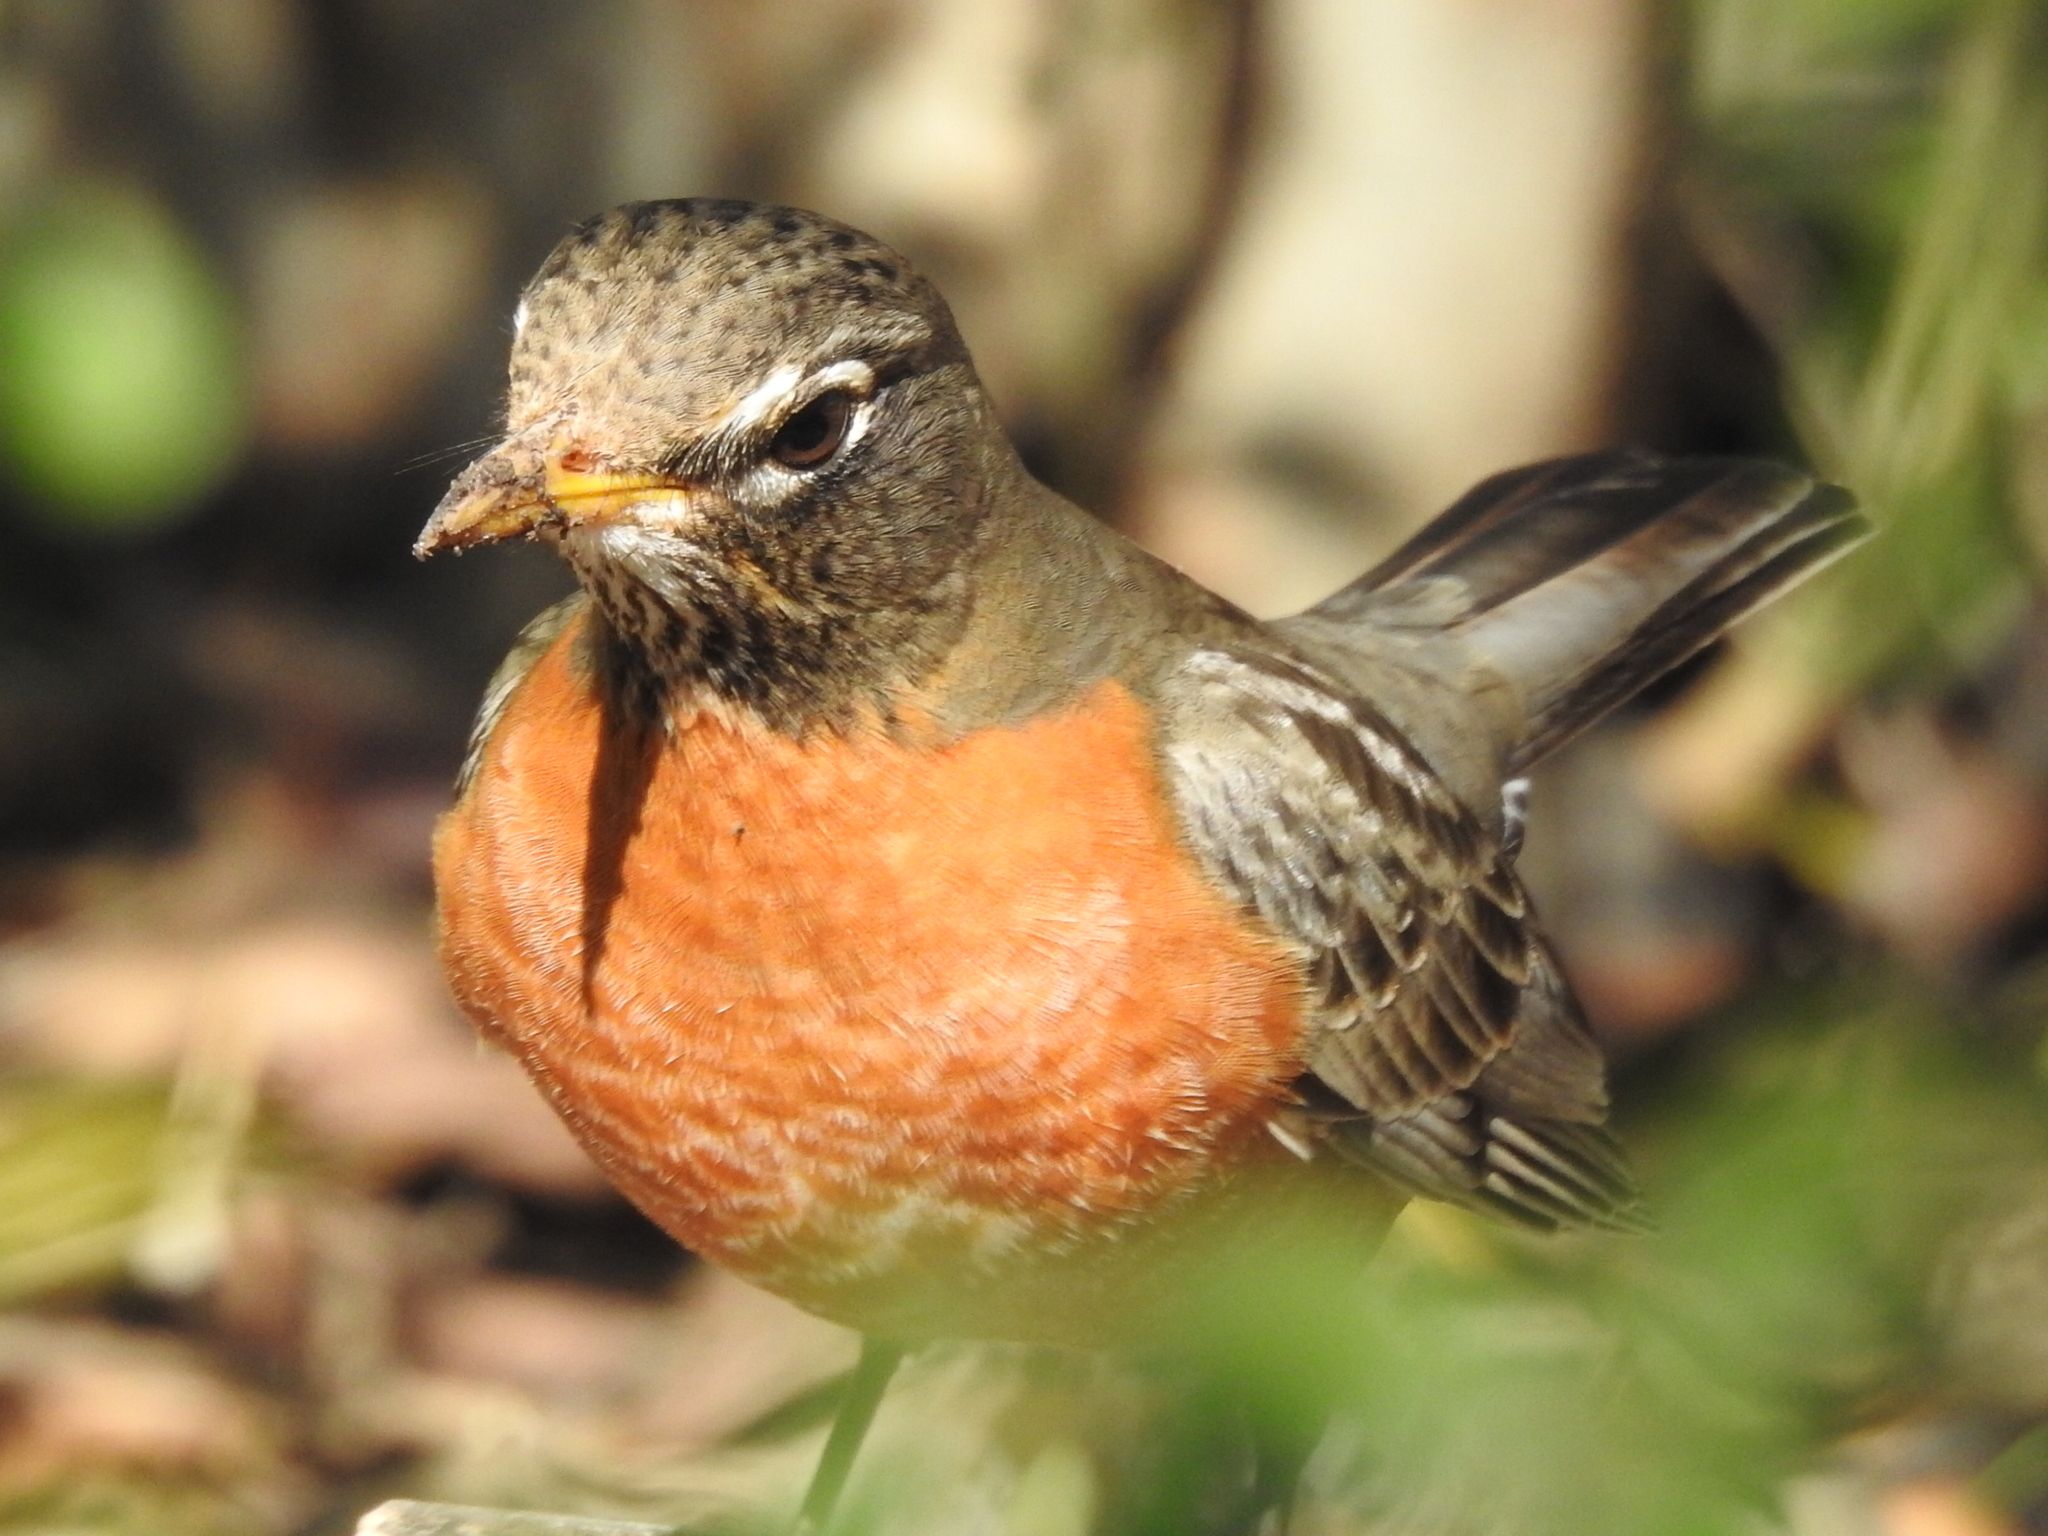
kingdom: Animalia
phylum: Chordata
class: Aves
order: Passeriformes
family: Turdidae
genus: Turdus
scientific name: Turdus migratorius
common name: American robin
